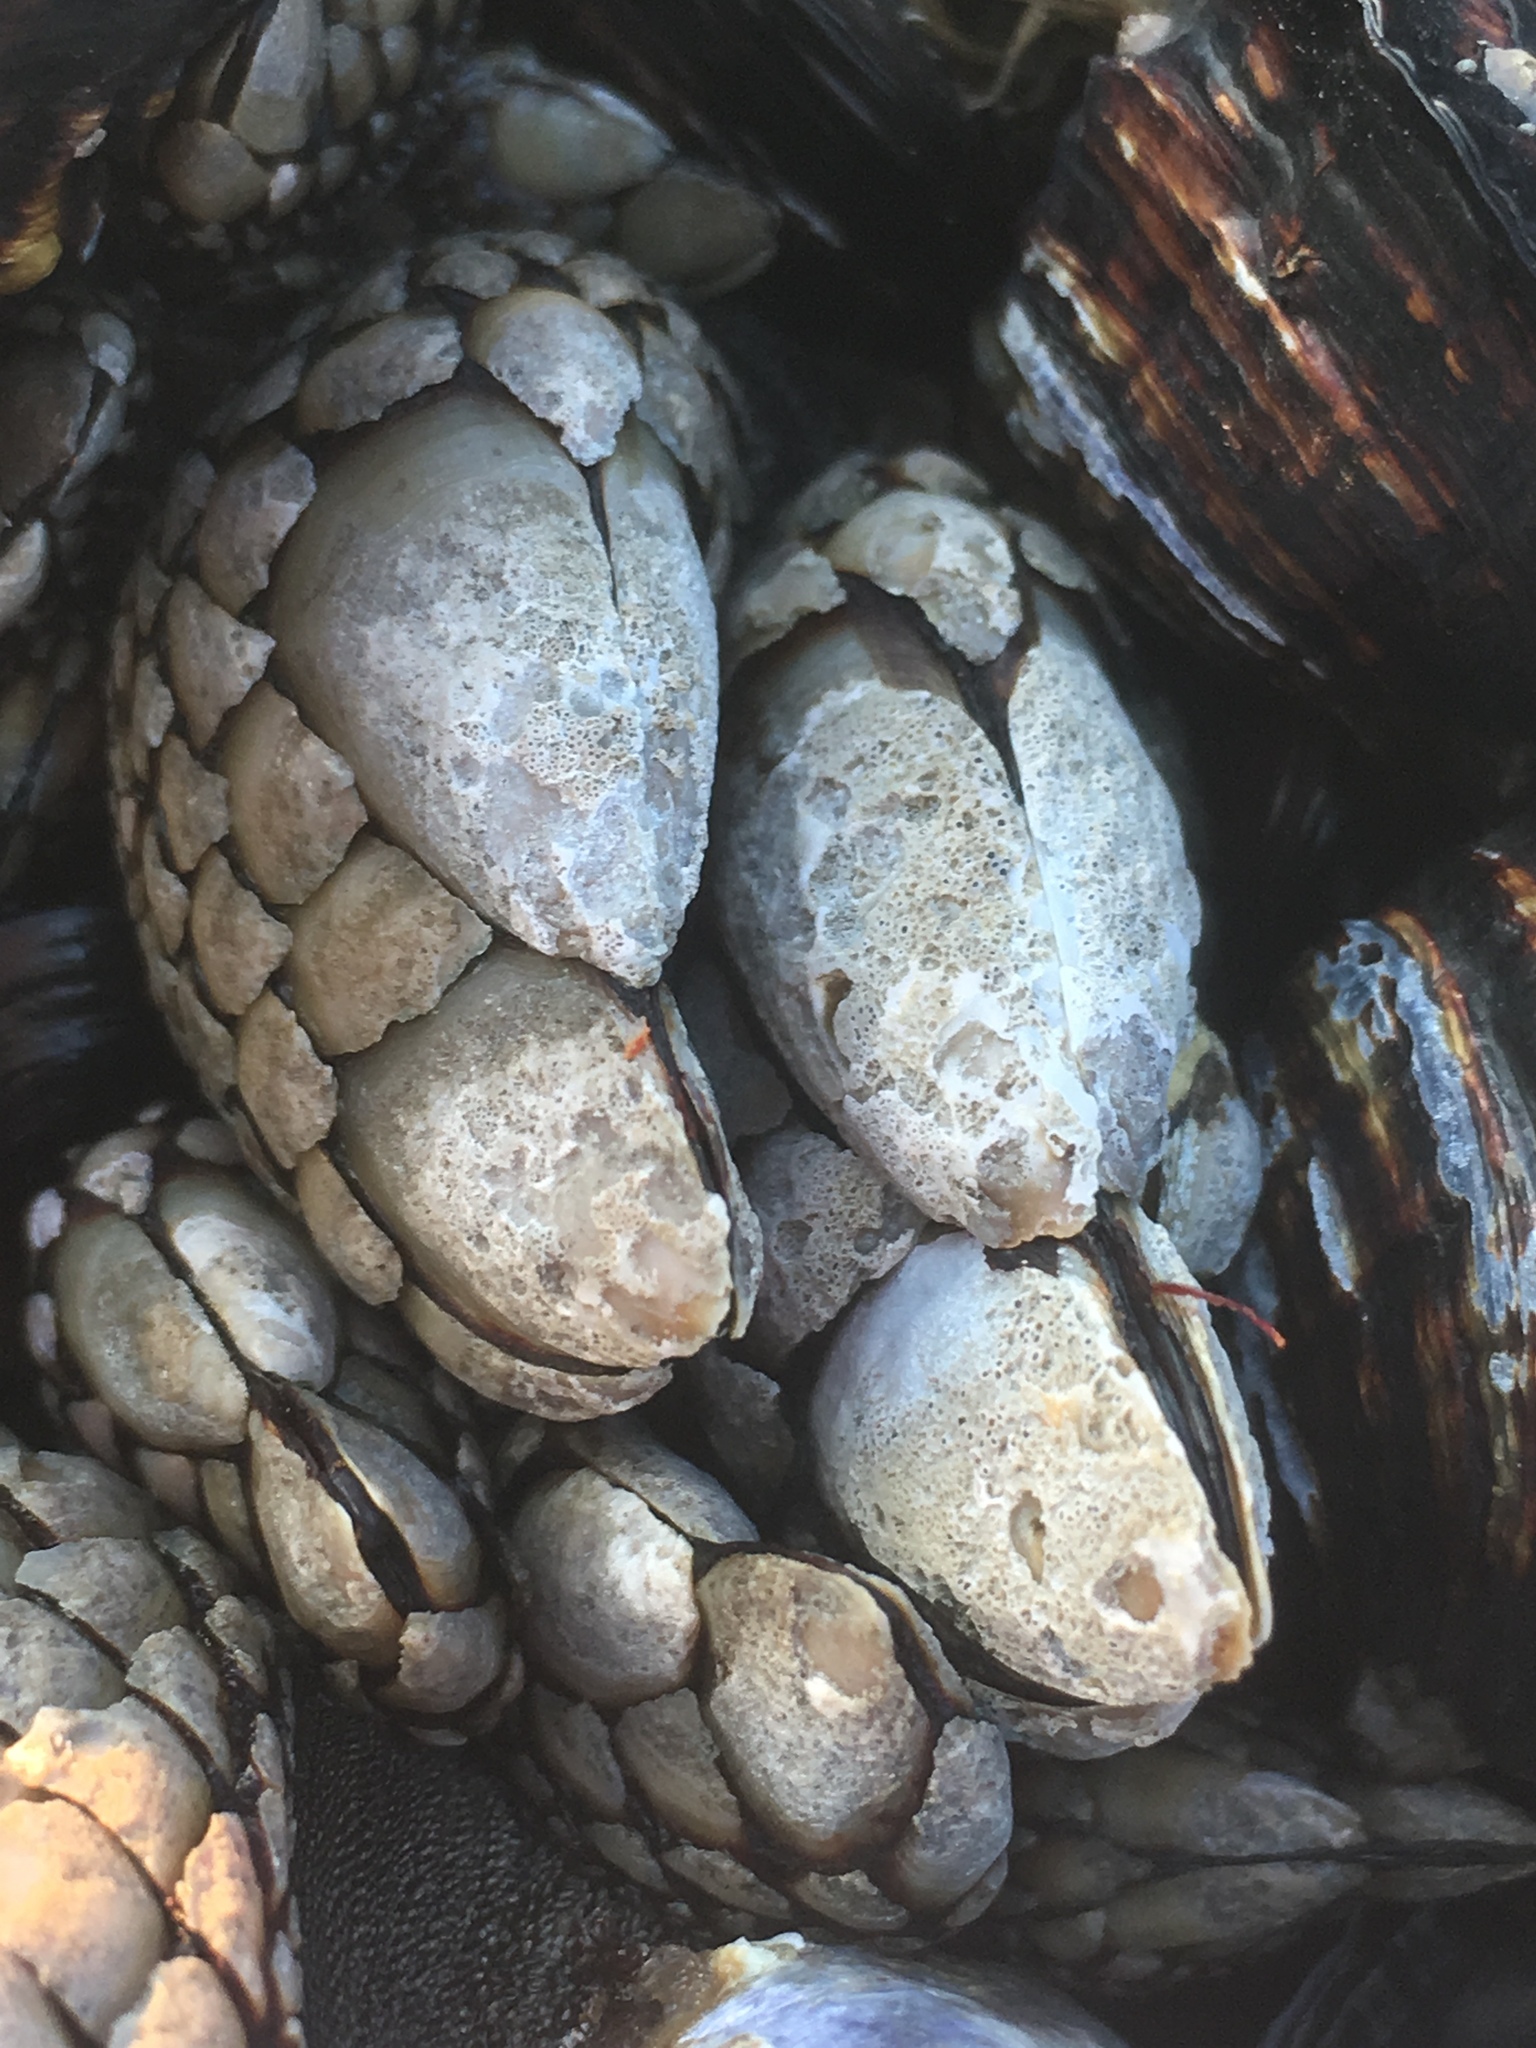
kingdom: Animalia
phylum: Arthropoda
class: Maxillopoda
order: Pedunculata
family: Pollicipedidae
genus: Pollicipes
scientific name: Pollicipes polymerus
